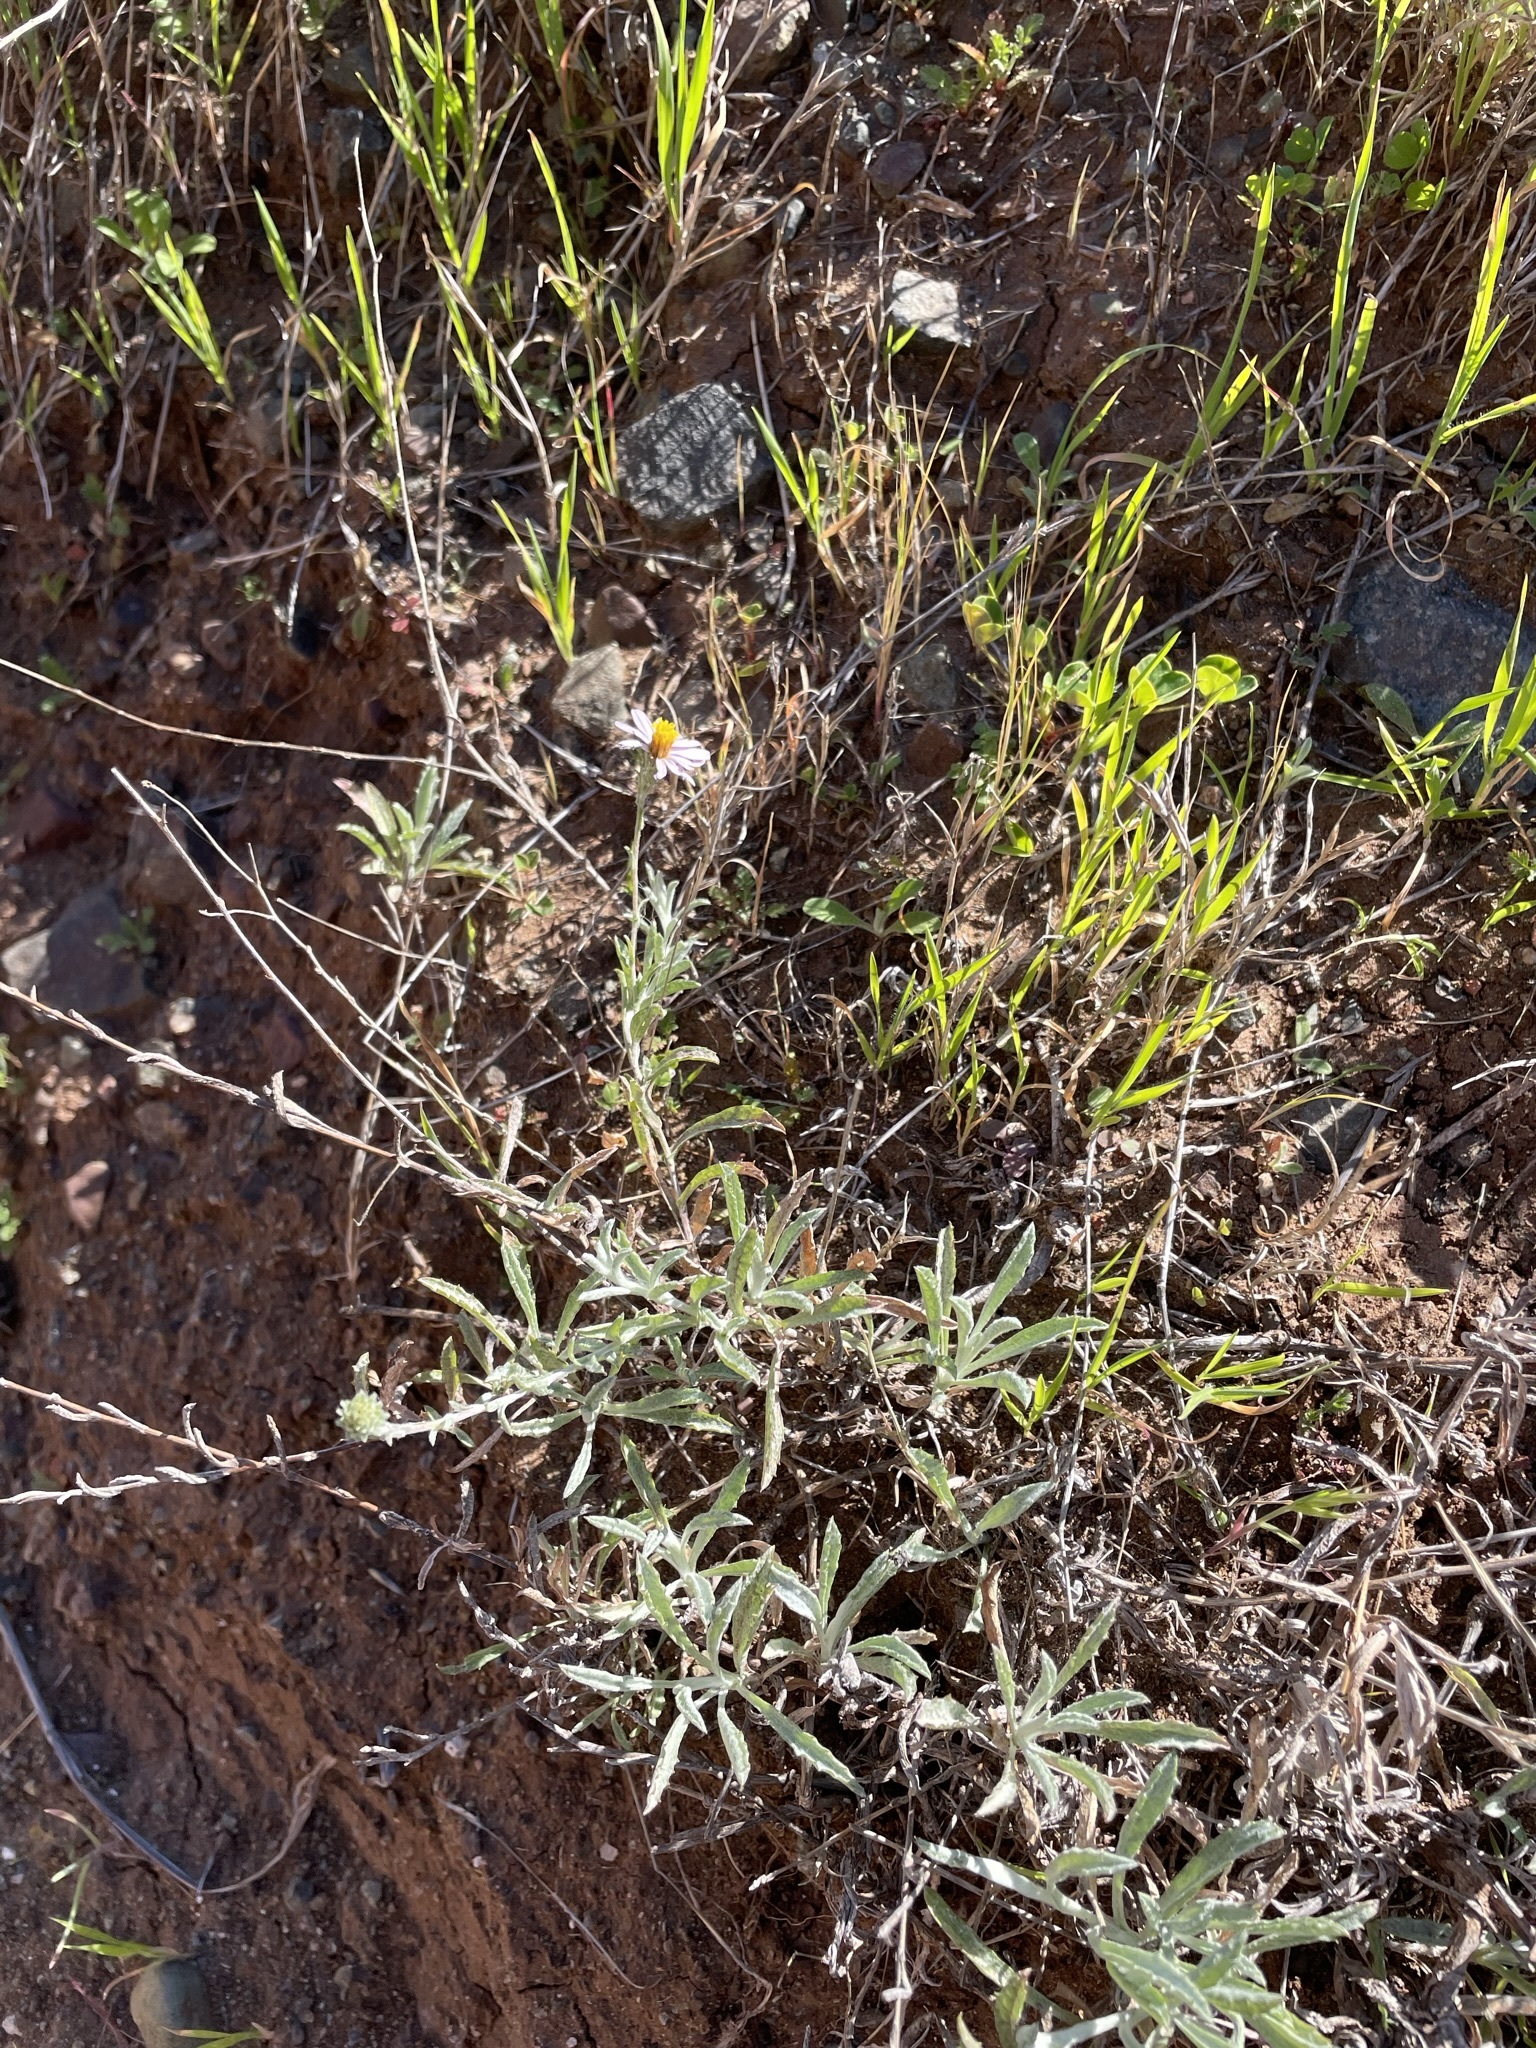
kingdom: Plantae
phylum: Tracheophyta
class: Magnoliopsida
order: Asterales
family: Asteraceae
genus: Corethrogyne
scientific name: Corethrogyne filaginifolia
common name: Sand-aster
